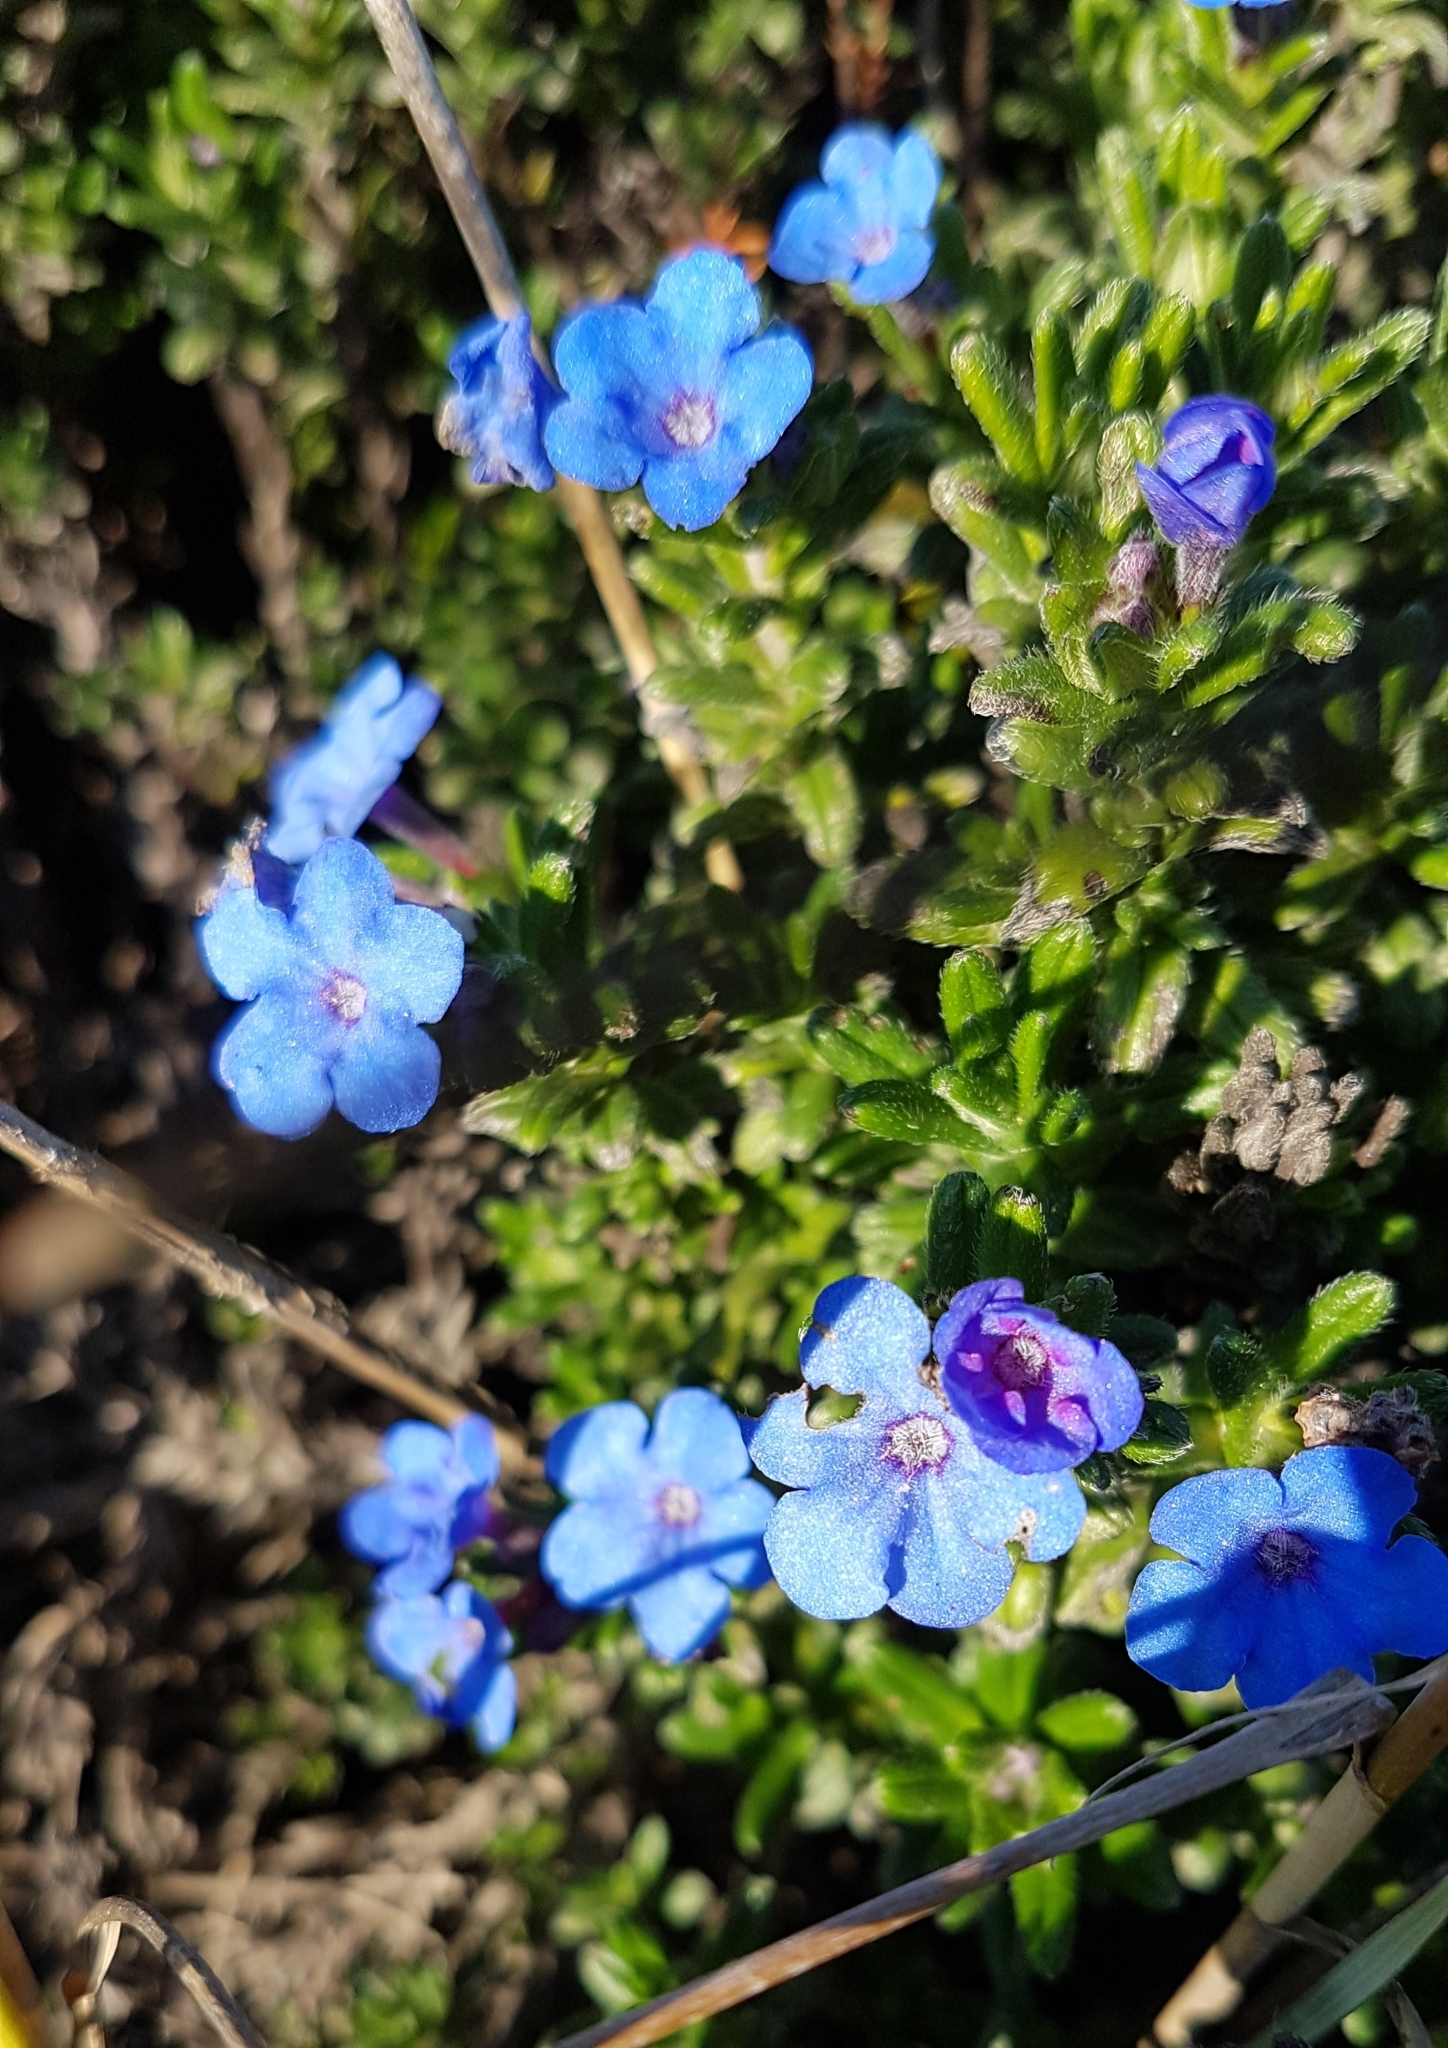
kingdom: Plantae
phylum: Tracheophyta
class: Magnoliopsida
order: Boraginales
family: Boraginaceae
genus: Glandora
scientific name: Glandora prostrata
